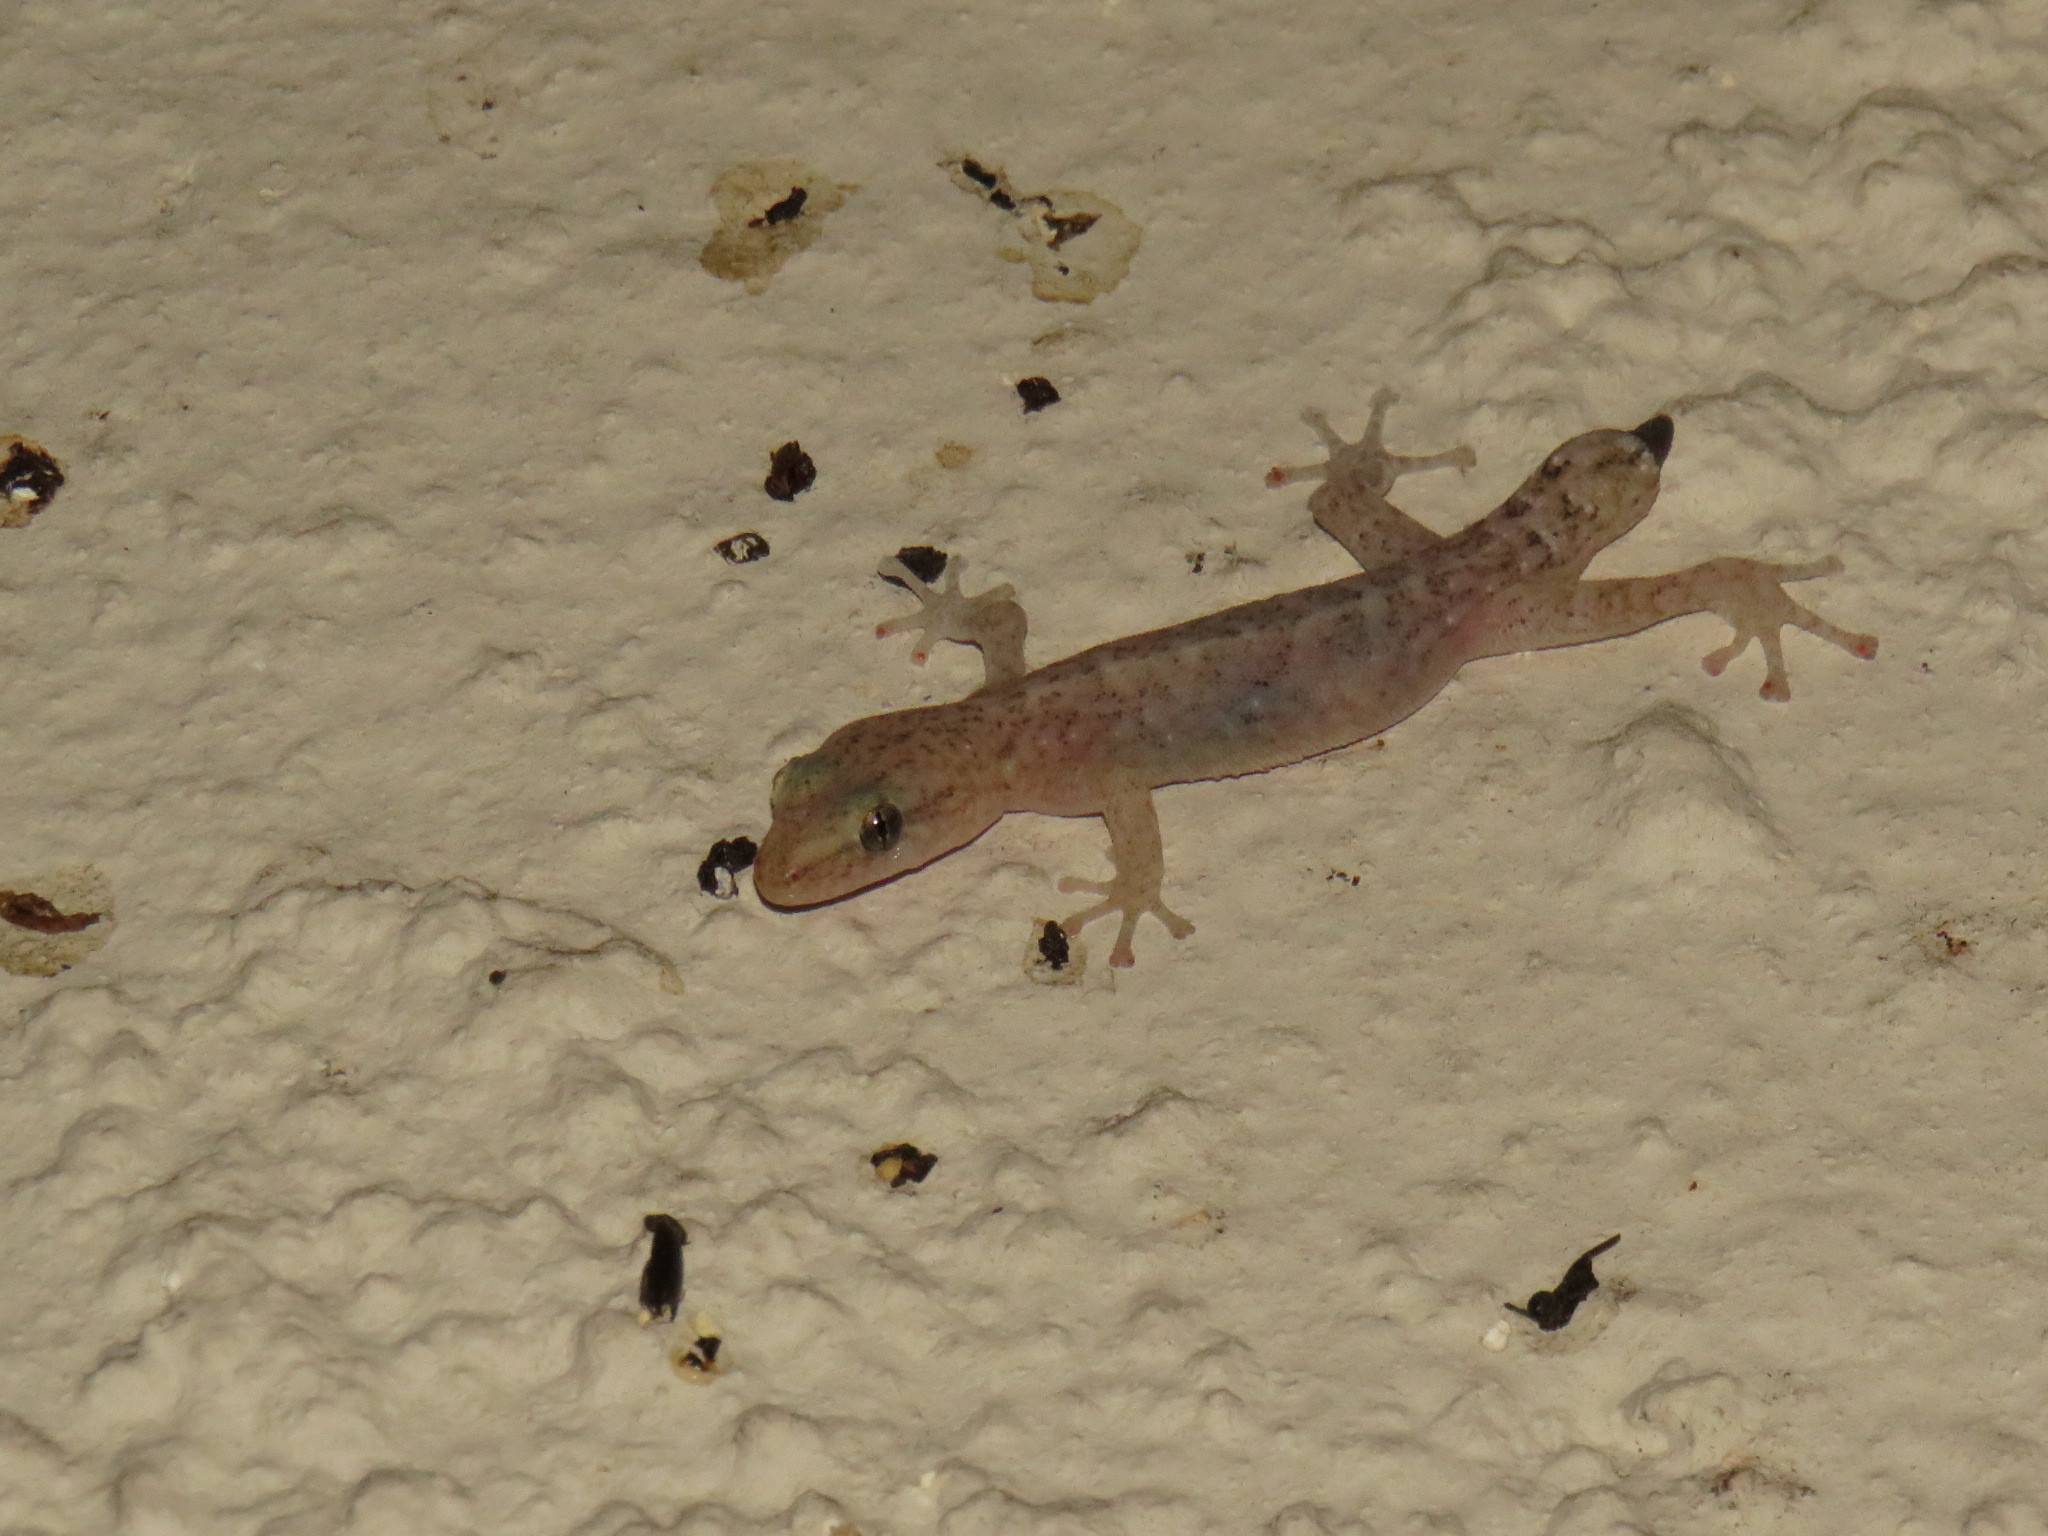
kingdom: Animalia
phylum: Chordata
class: Squamata
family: Gekkonidae
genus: Afrogecko
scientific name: Afrogecko porphyreus
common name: Marbled leaf-toed gecko
